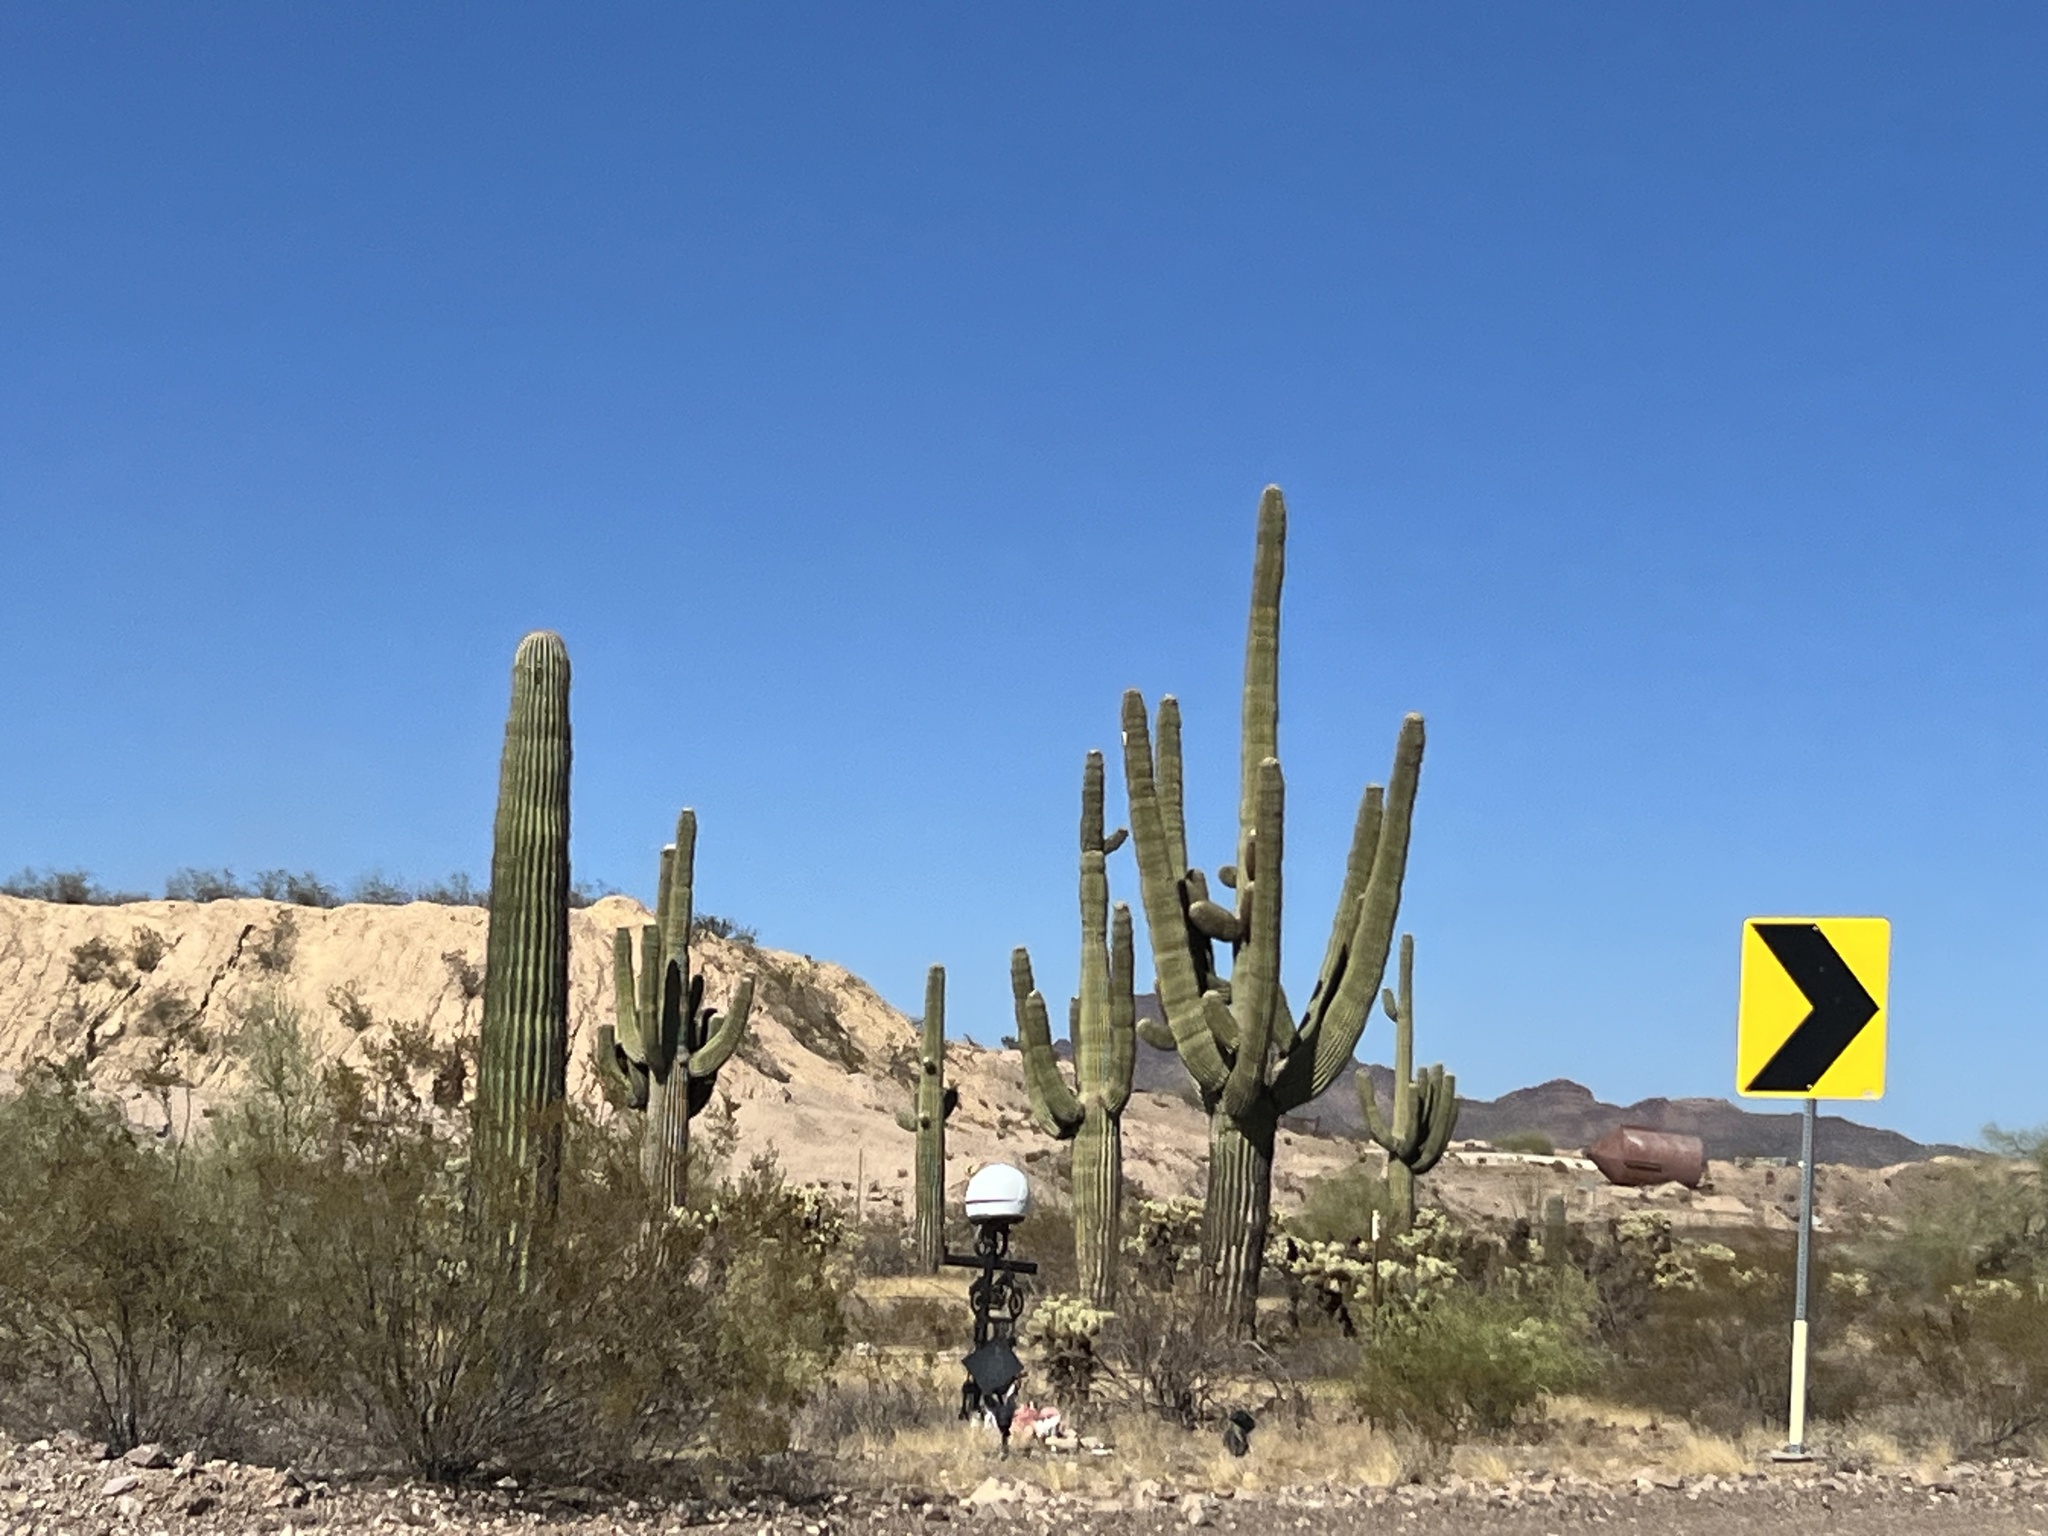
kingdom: Plantae
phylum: Tracheophyta
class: Magnoliopsida
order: Caryophyllales
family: Cactaceae
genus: Carnegiea
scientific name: Carnegiea gigantea
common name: Saguaro
